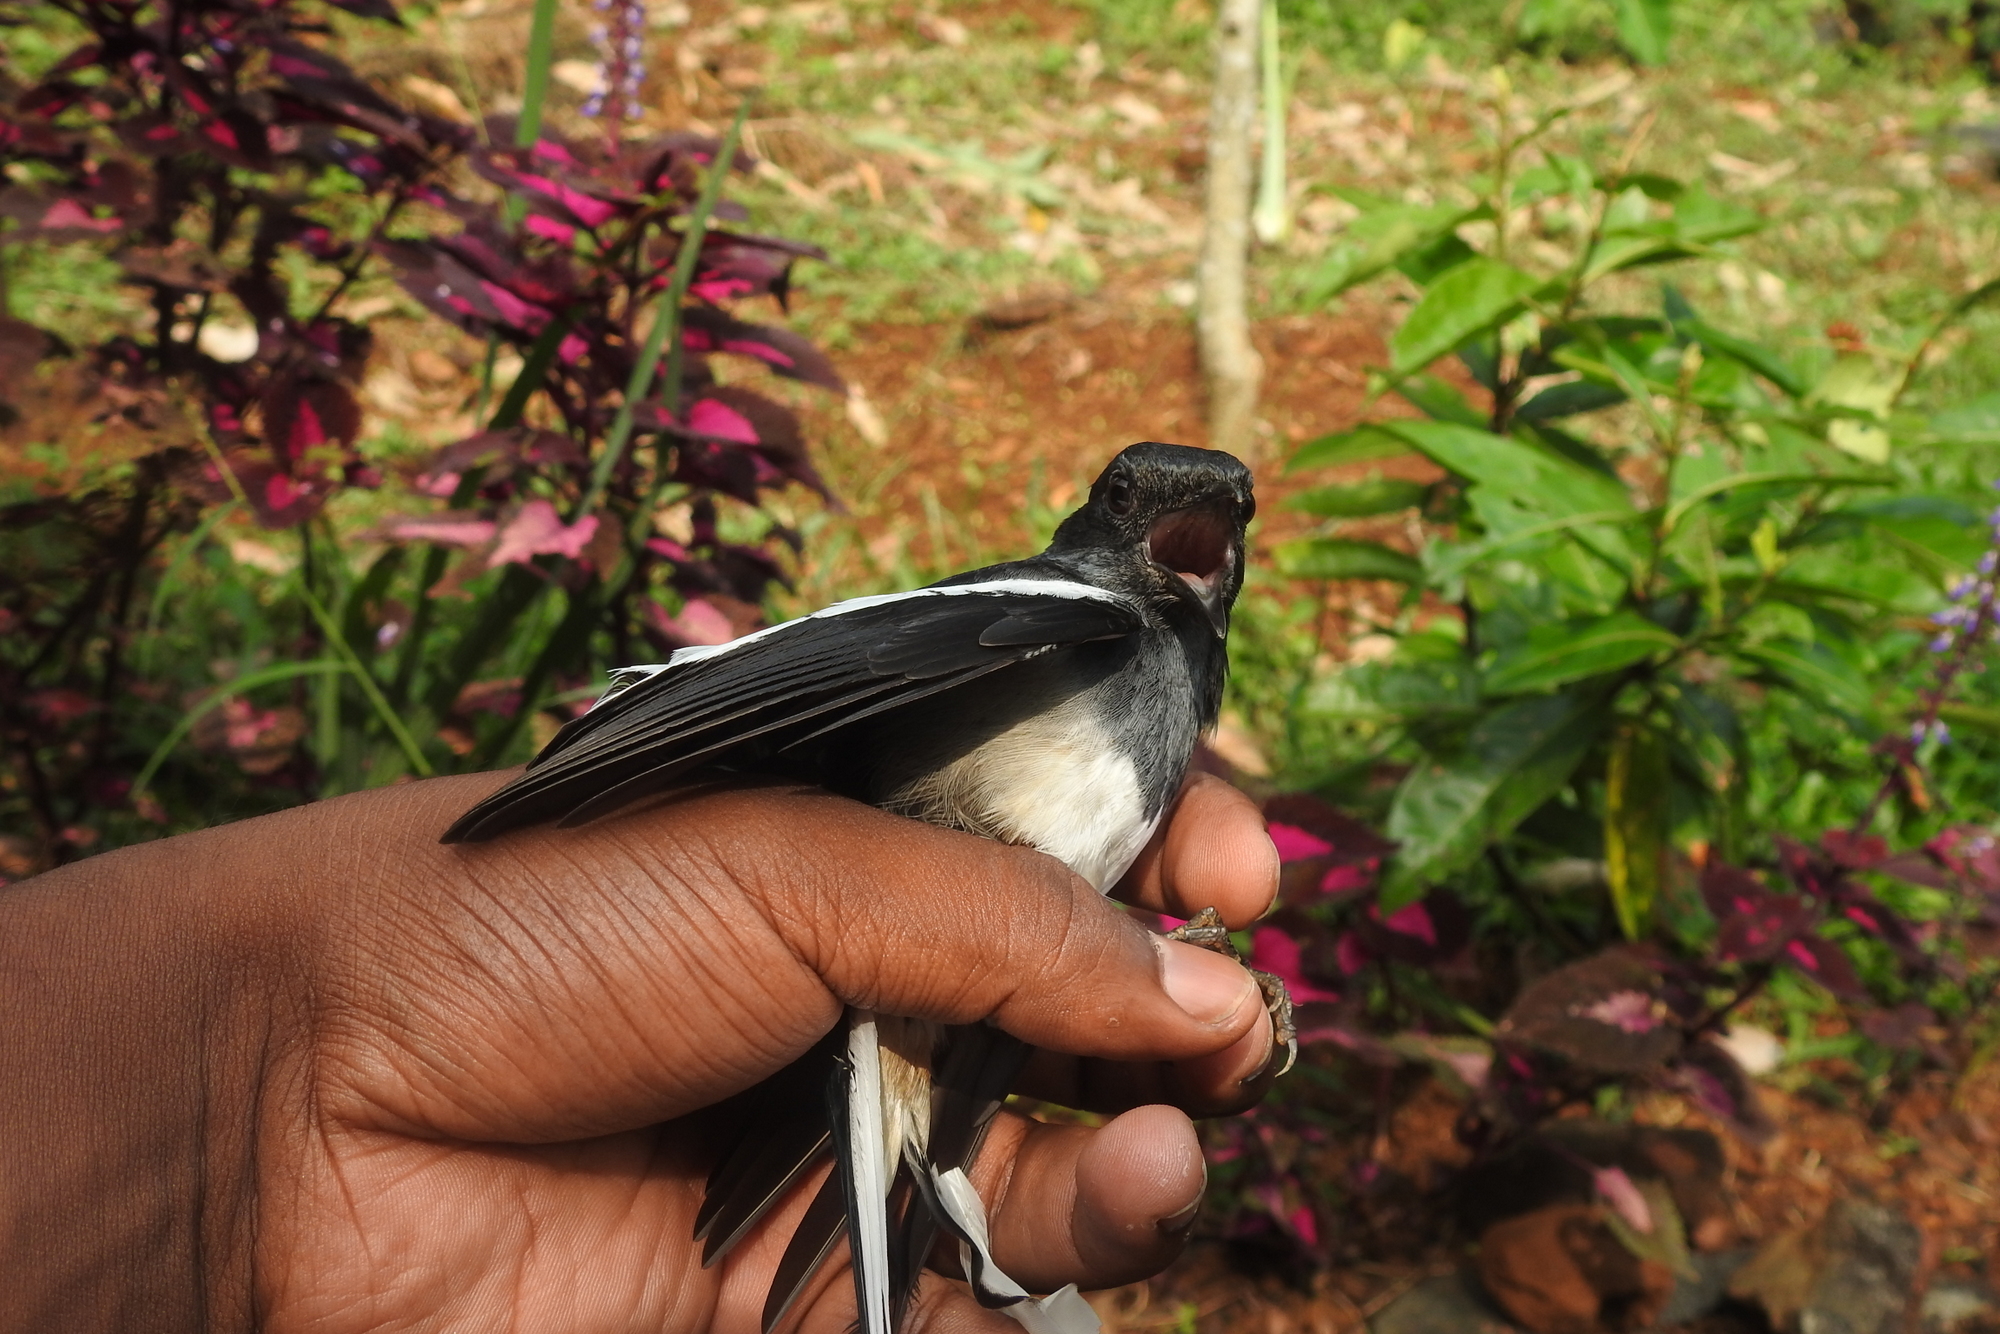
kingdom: Animalia
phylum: Chordata
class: Aves
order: Passeriformes
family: Muscicapidae
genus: Copsychus
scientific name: Copsychus saularis
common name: Oriental magpie-robin
